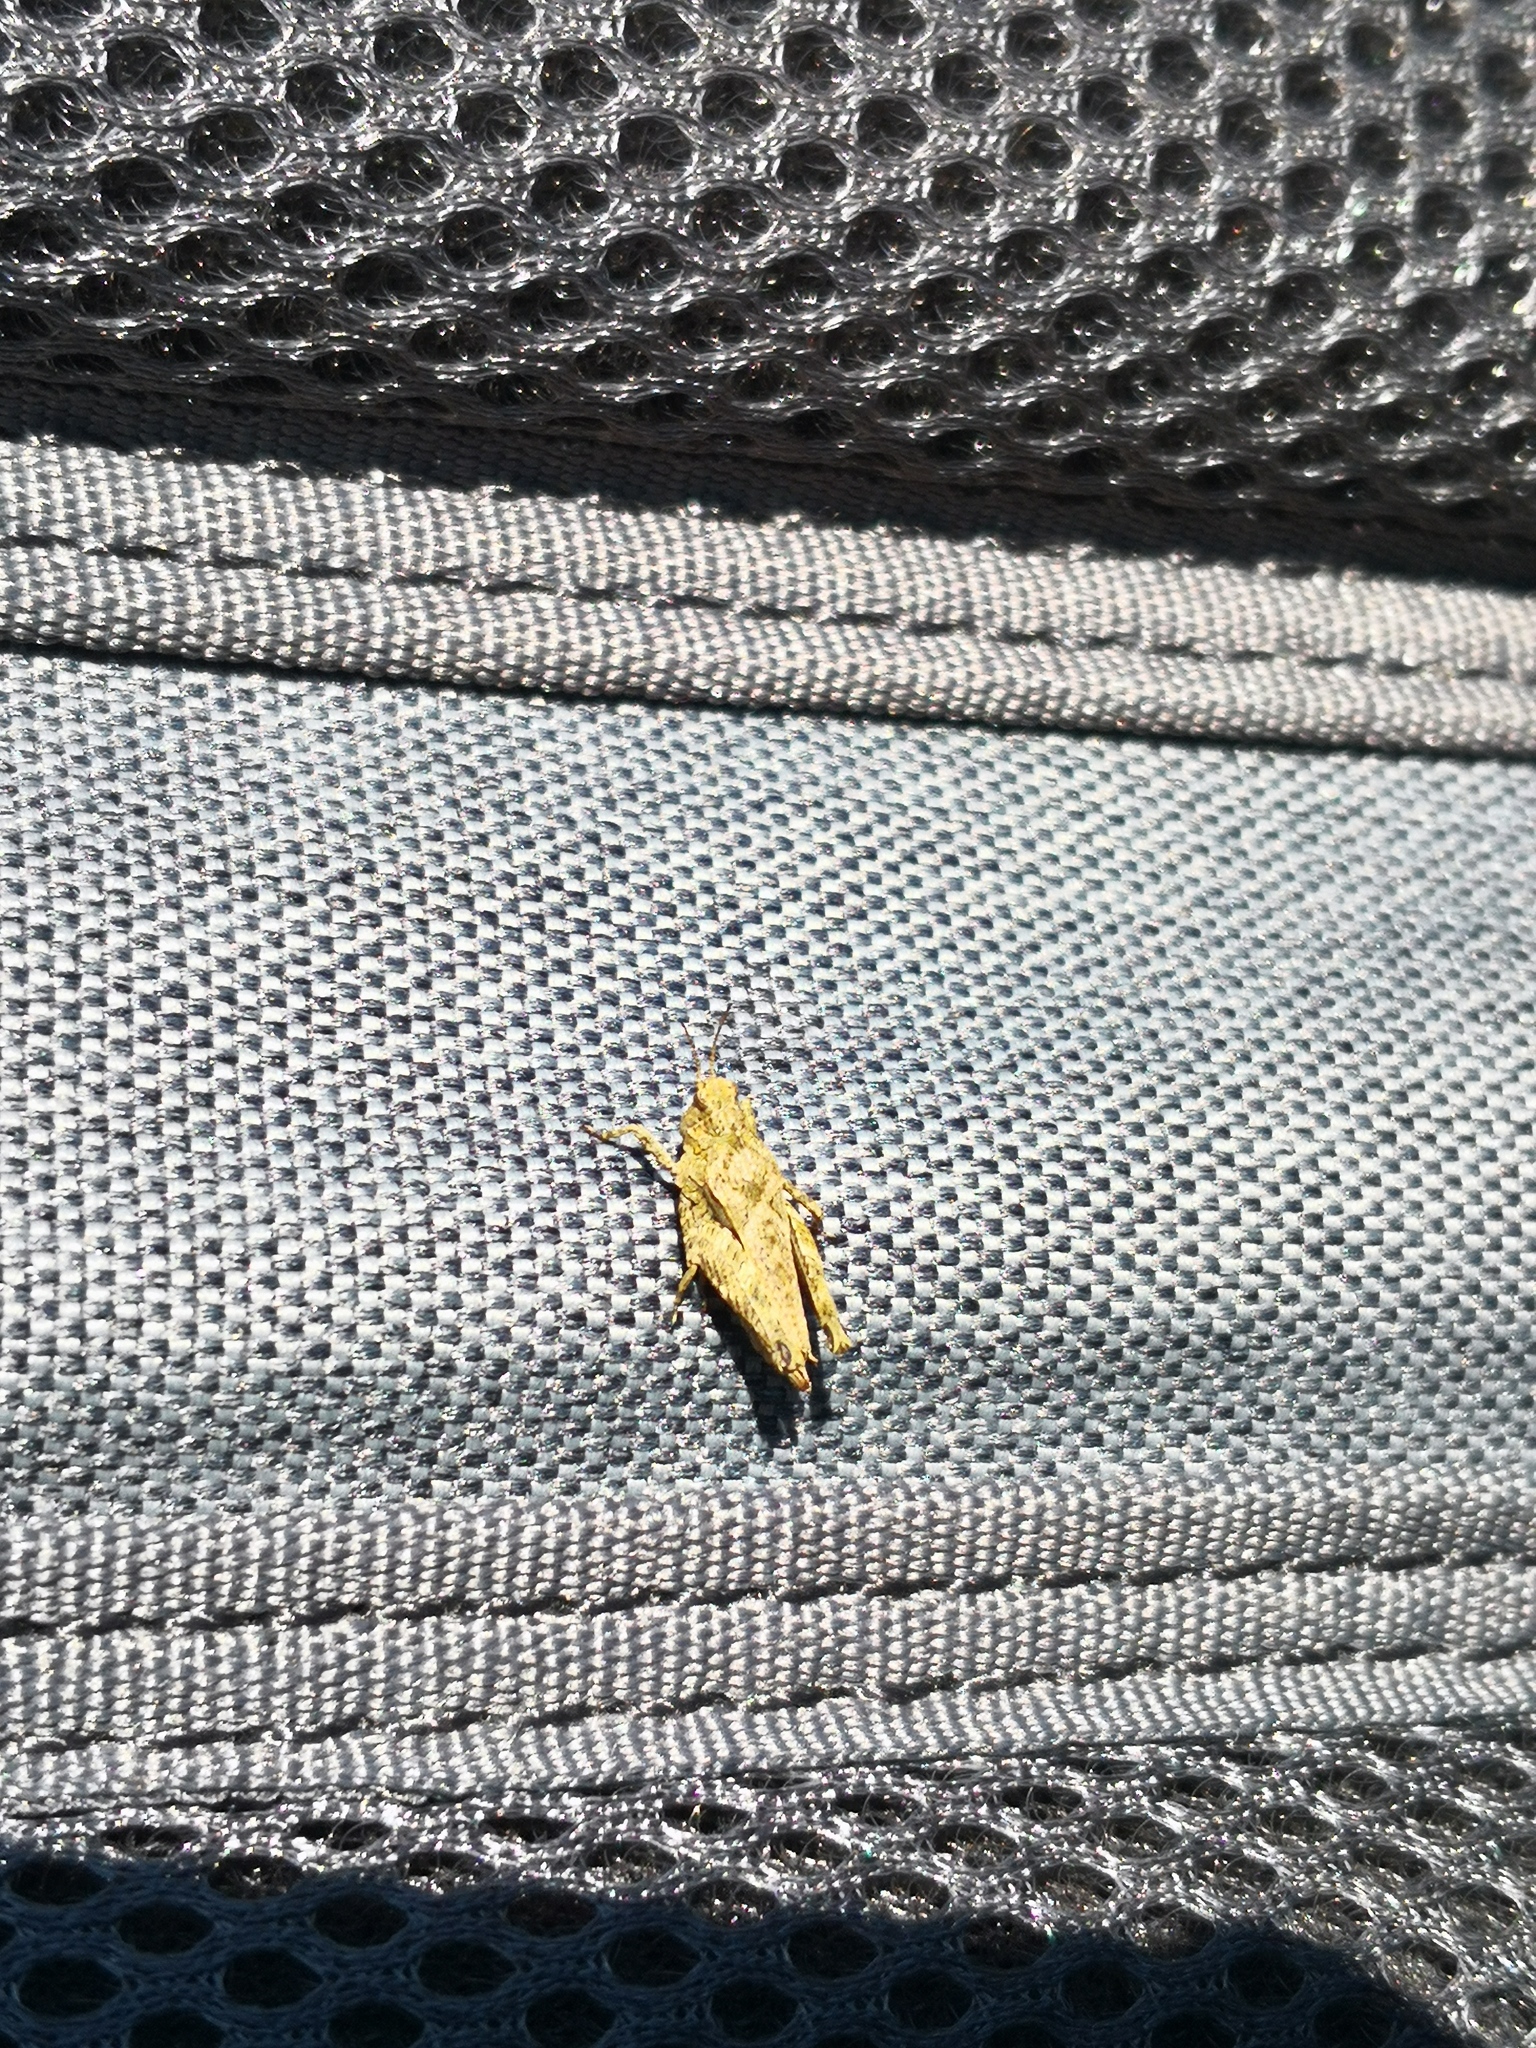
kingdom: Animalia
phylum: Arthropoda
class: Insecta
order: Orthoptera
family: Tetrigidae
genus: Tetrix
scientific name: Tetrix undulata
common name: Common groundhopper
